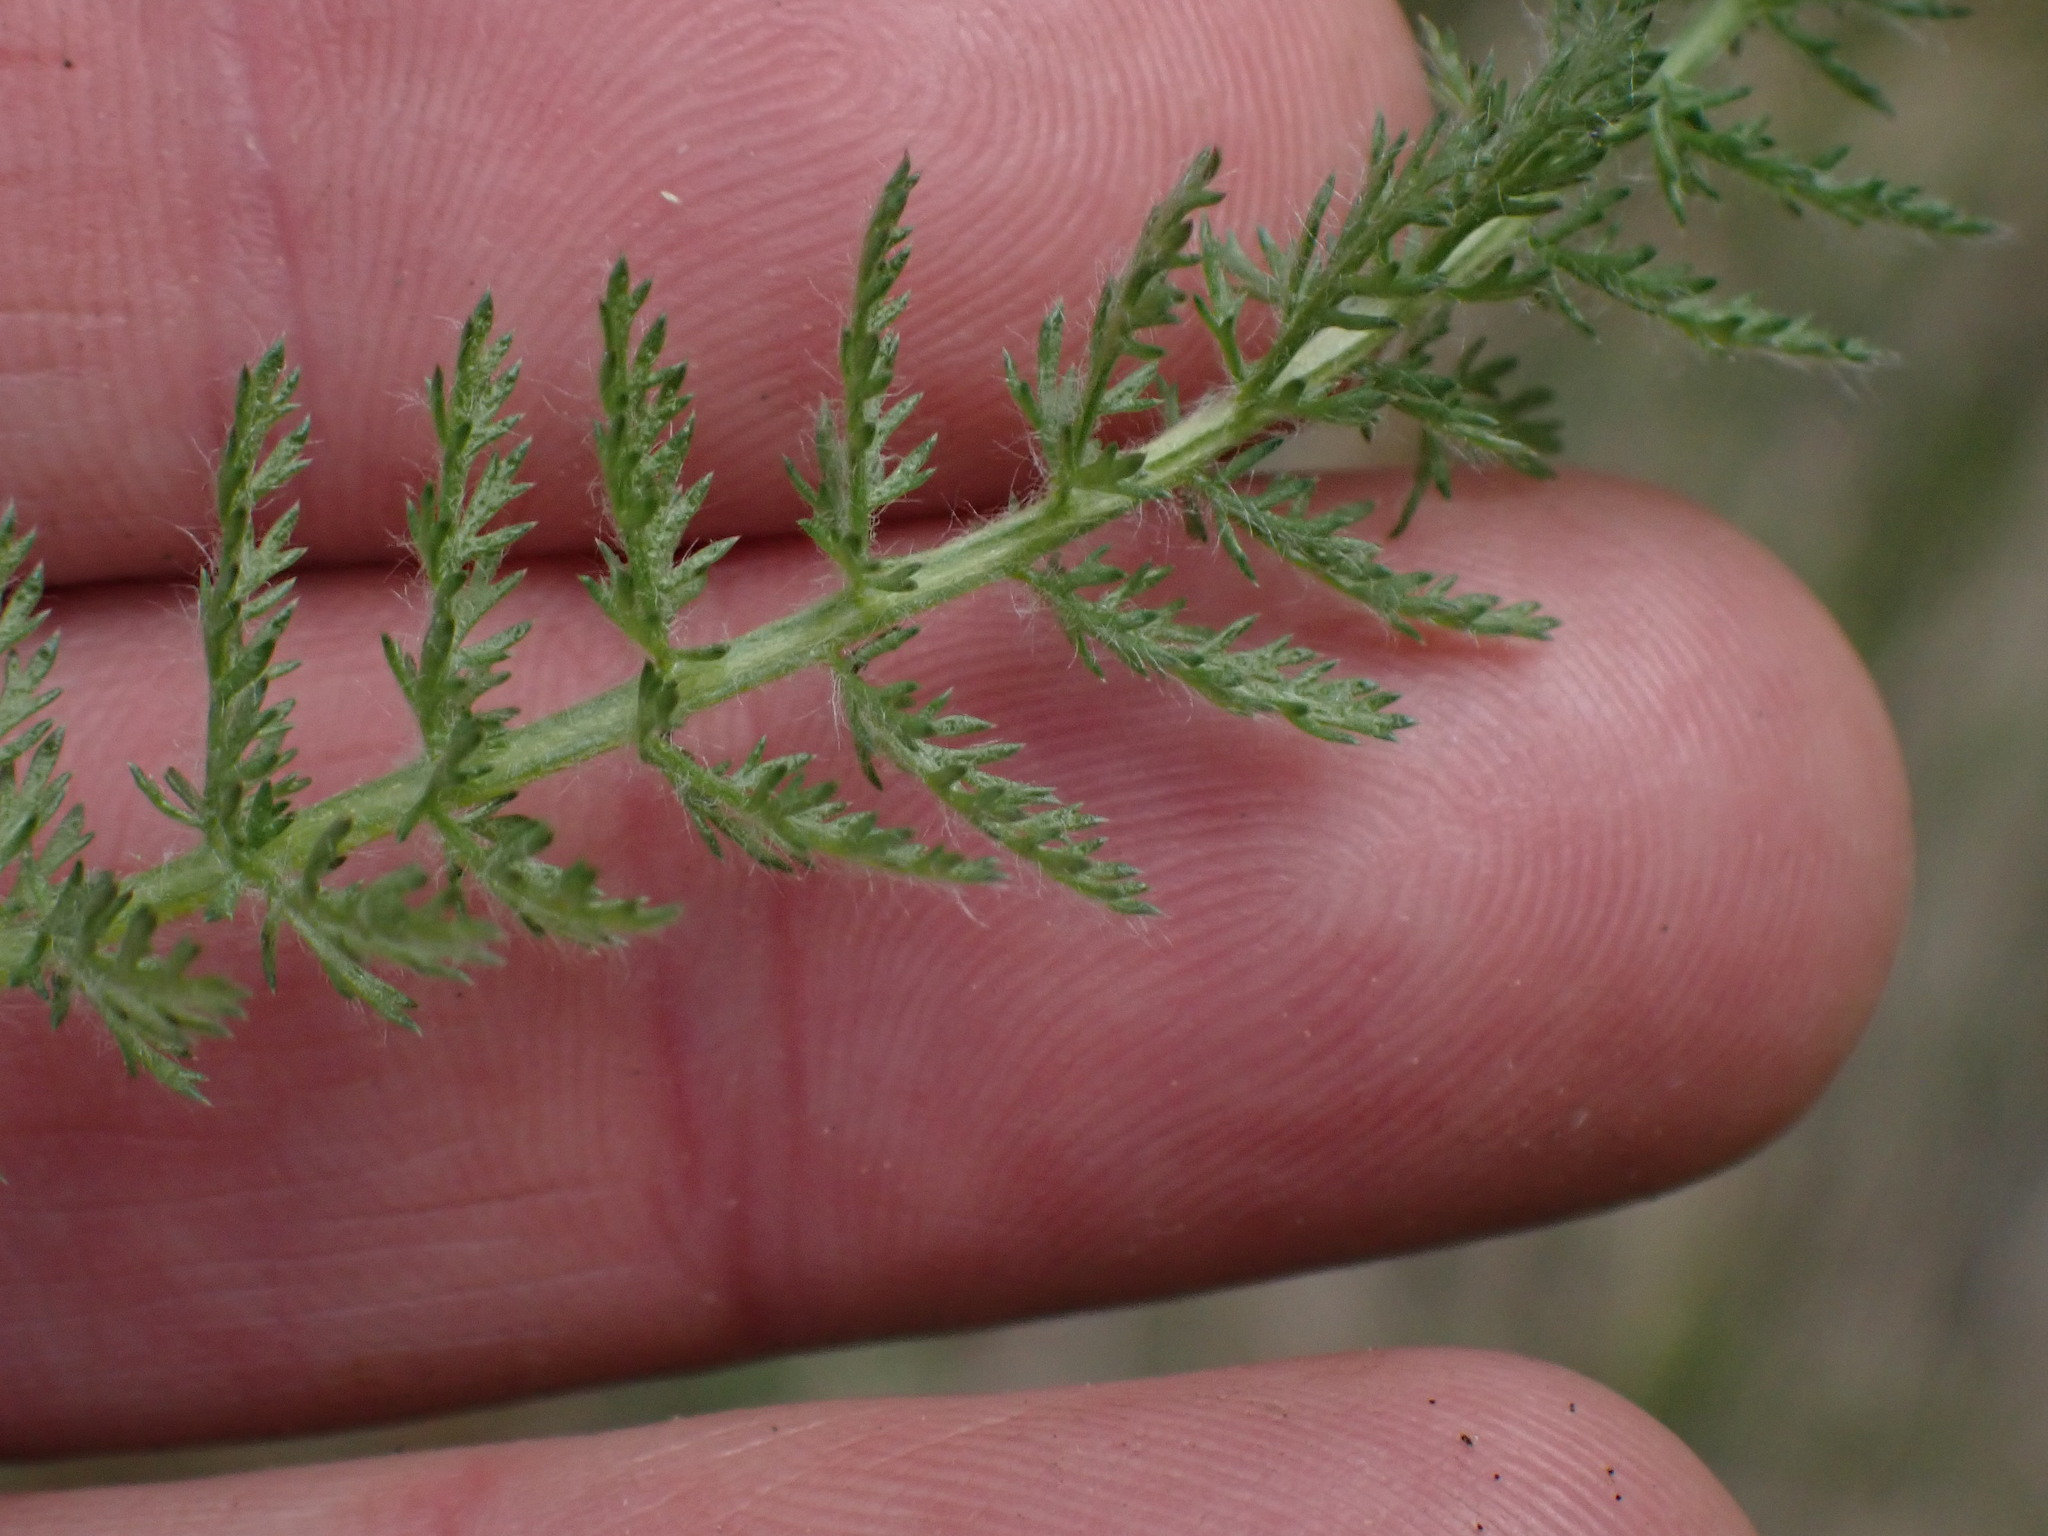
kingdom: Plantae
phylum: Tracheophyta
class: Magnoliopsida
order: Asterales
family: Asteraceae
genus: Achillea
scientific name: Achillea millefolium
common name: Yarrow
